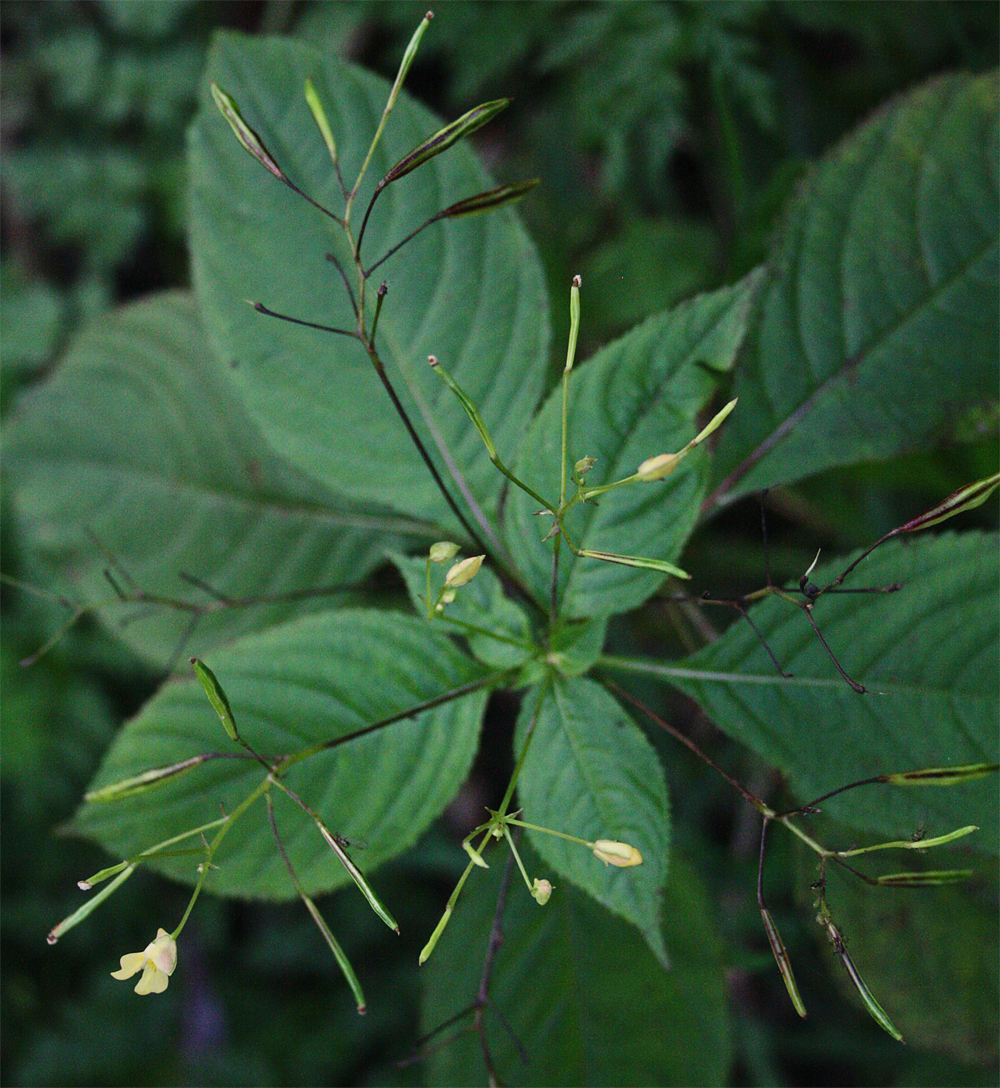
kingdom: Plantae
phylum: Tracheophyta
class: Magnoliopsida
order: Ericales
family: Balsaminaceae
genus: Impatiens
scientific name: Impatiens parviflora
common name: Small balsam
